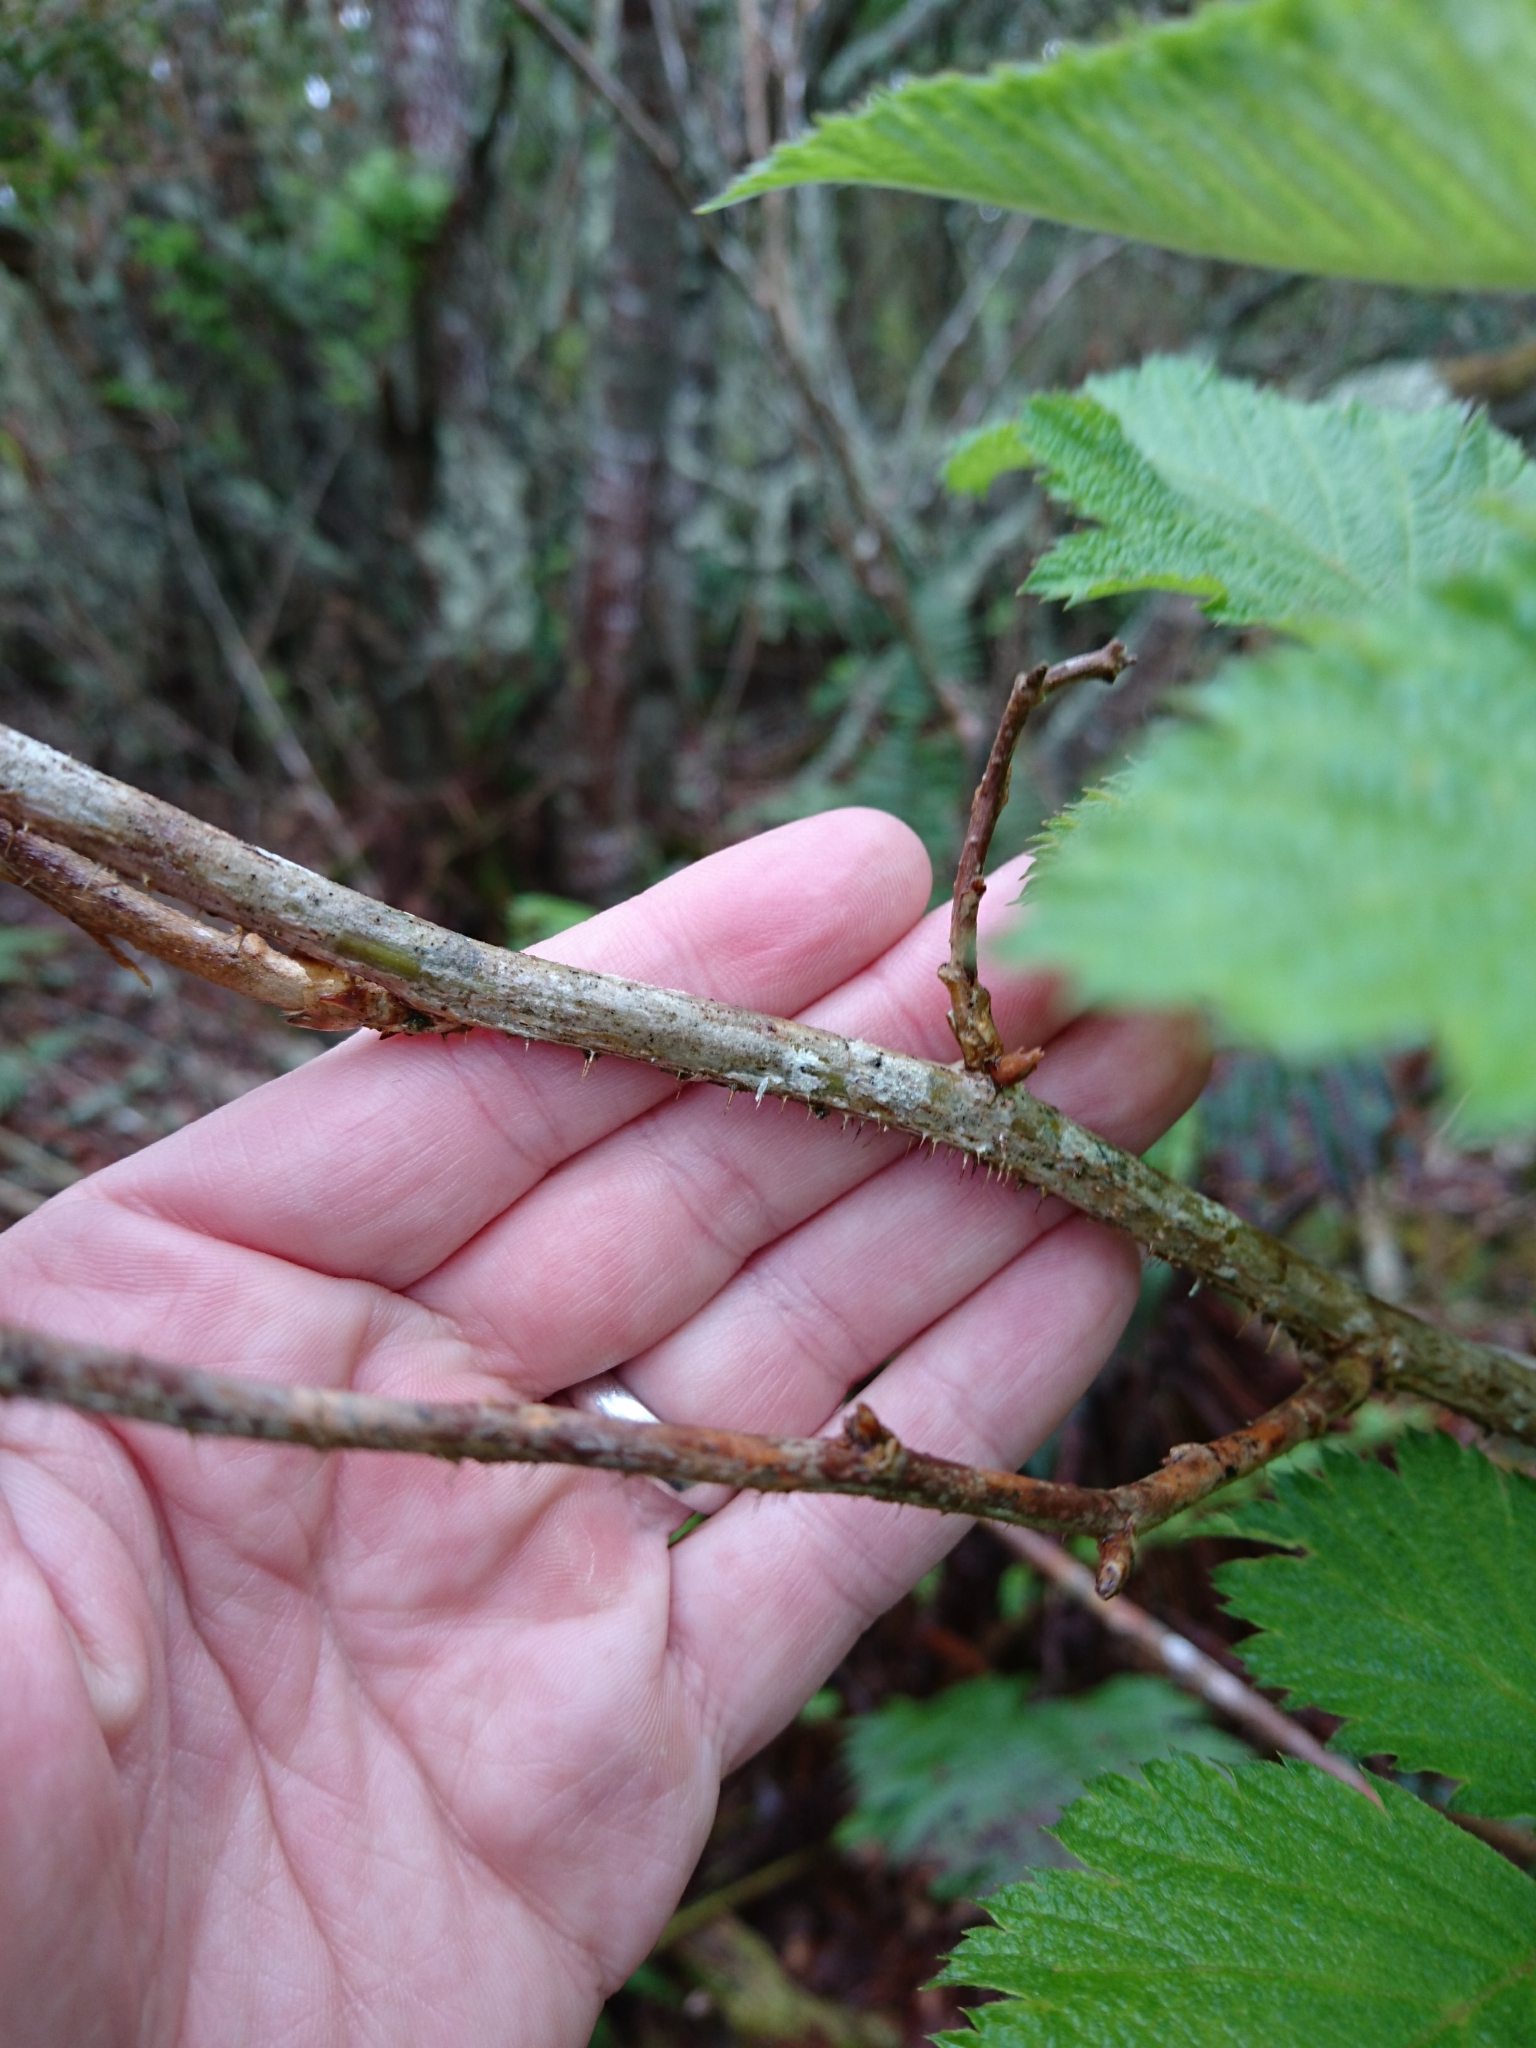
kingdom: Plantae
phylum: Tracheophyta
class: Magnoliopsida
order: Rosales
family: Rosaceae
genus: Rubus
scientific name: Rubus hawaiensis
